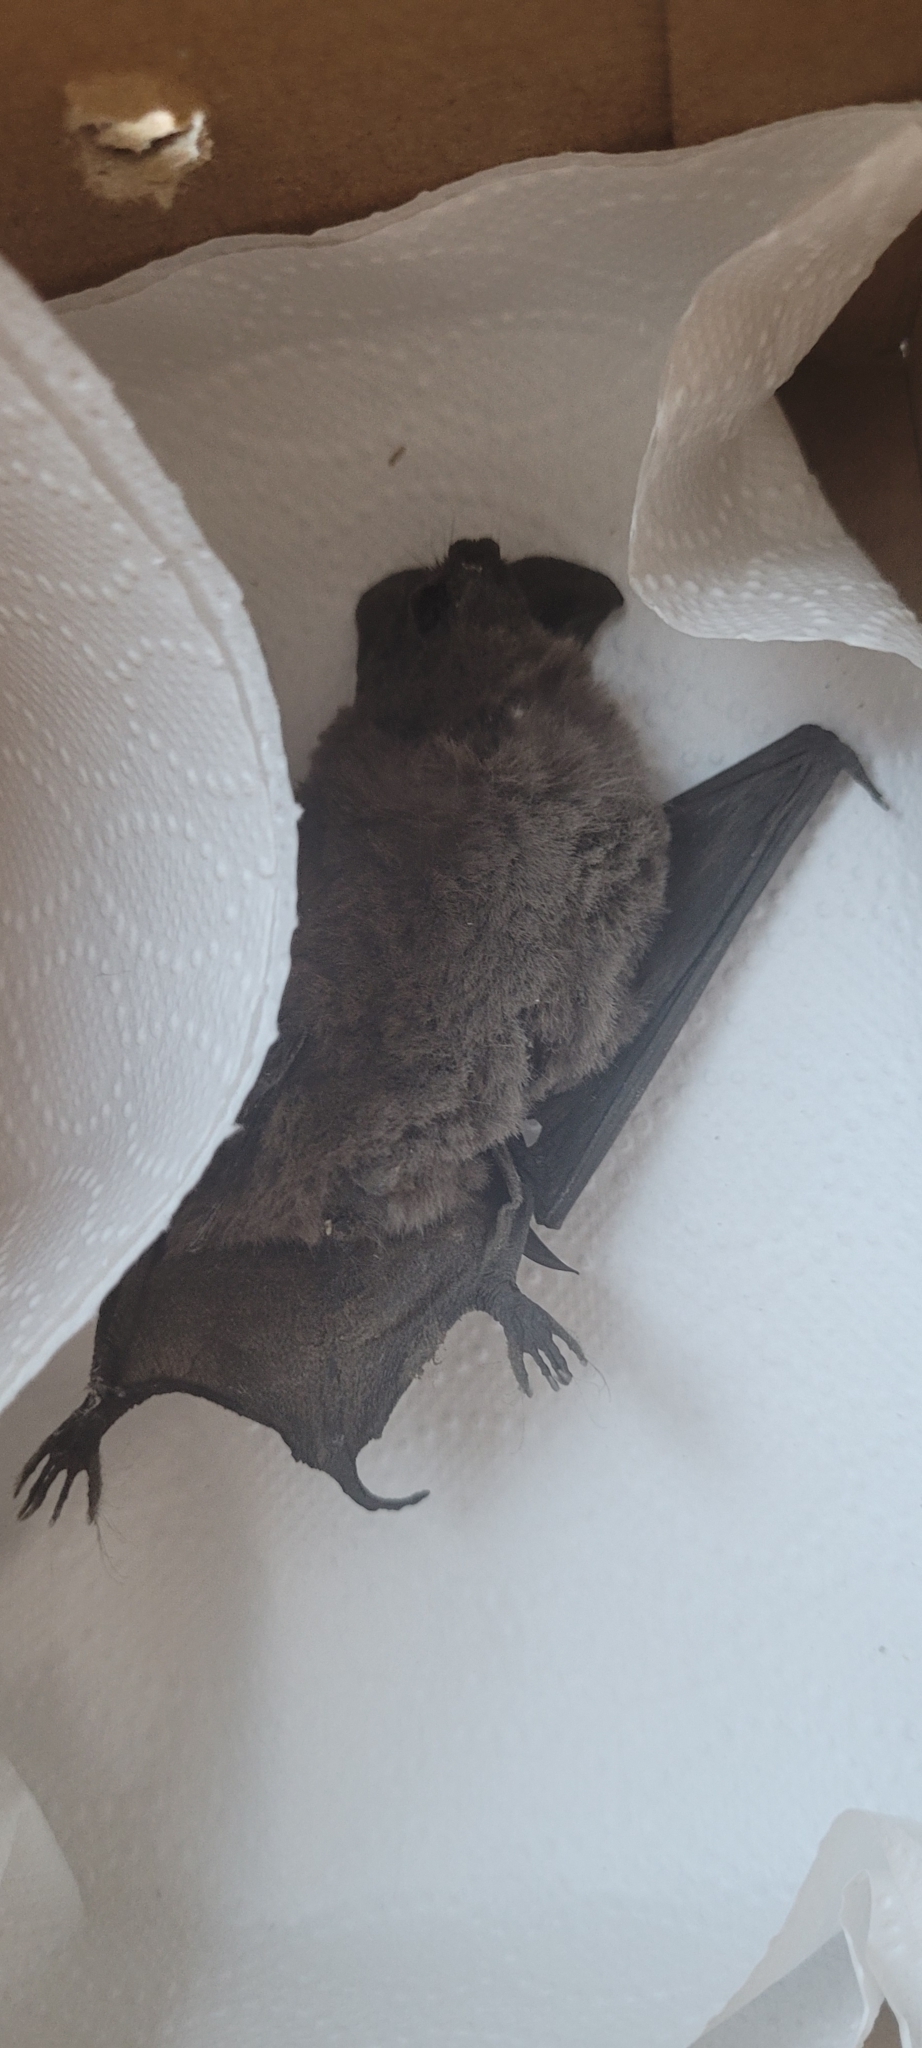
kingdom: Animalia
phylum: Chordata
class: Mammalia
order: Chiroptera
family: Molossidae
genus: Tadarida
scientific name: Tadarida brasiliensis
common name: Mexican free-tailed bat
